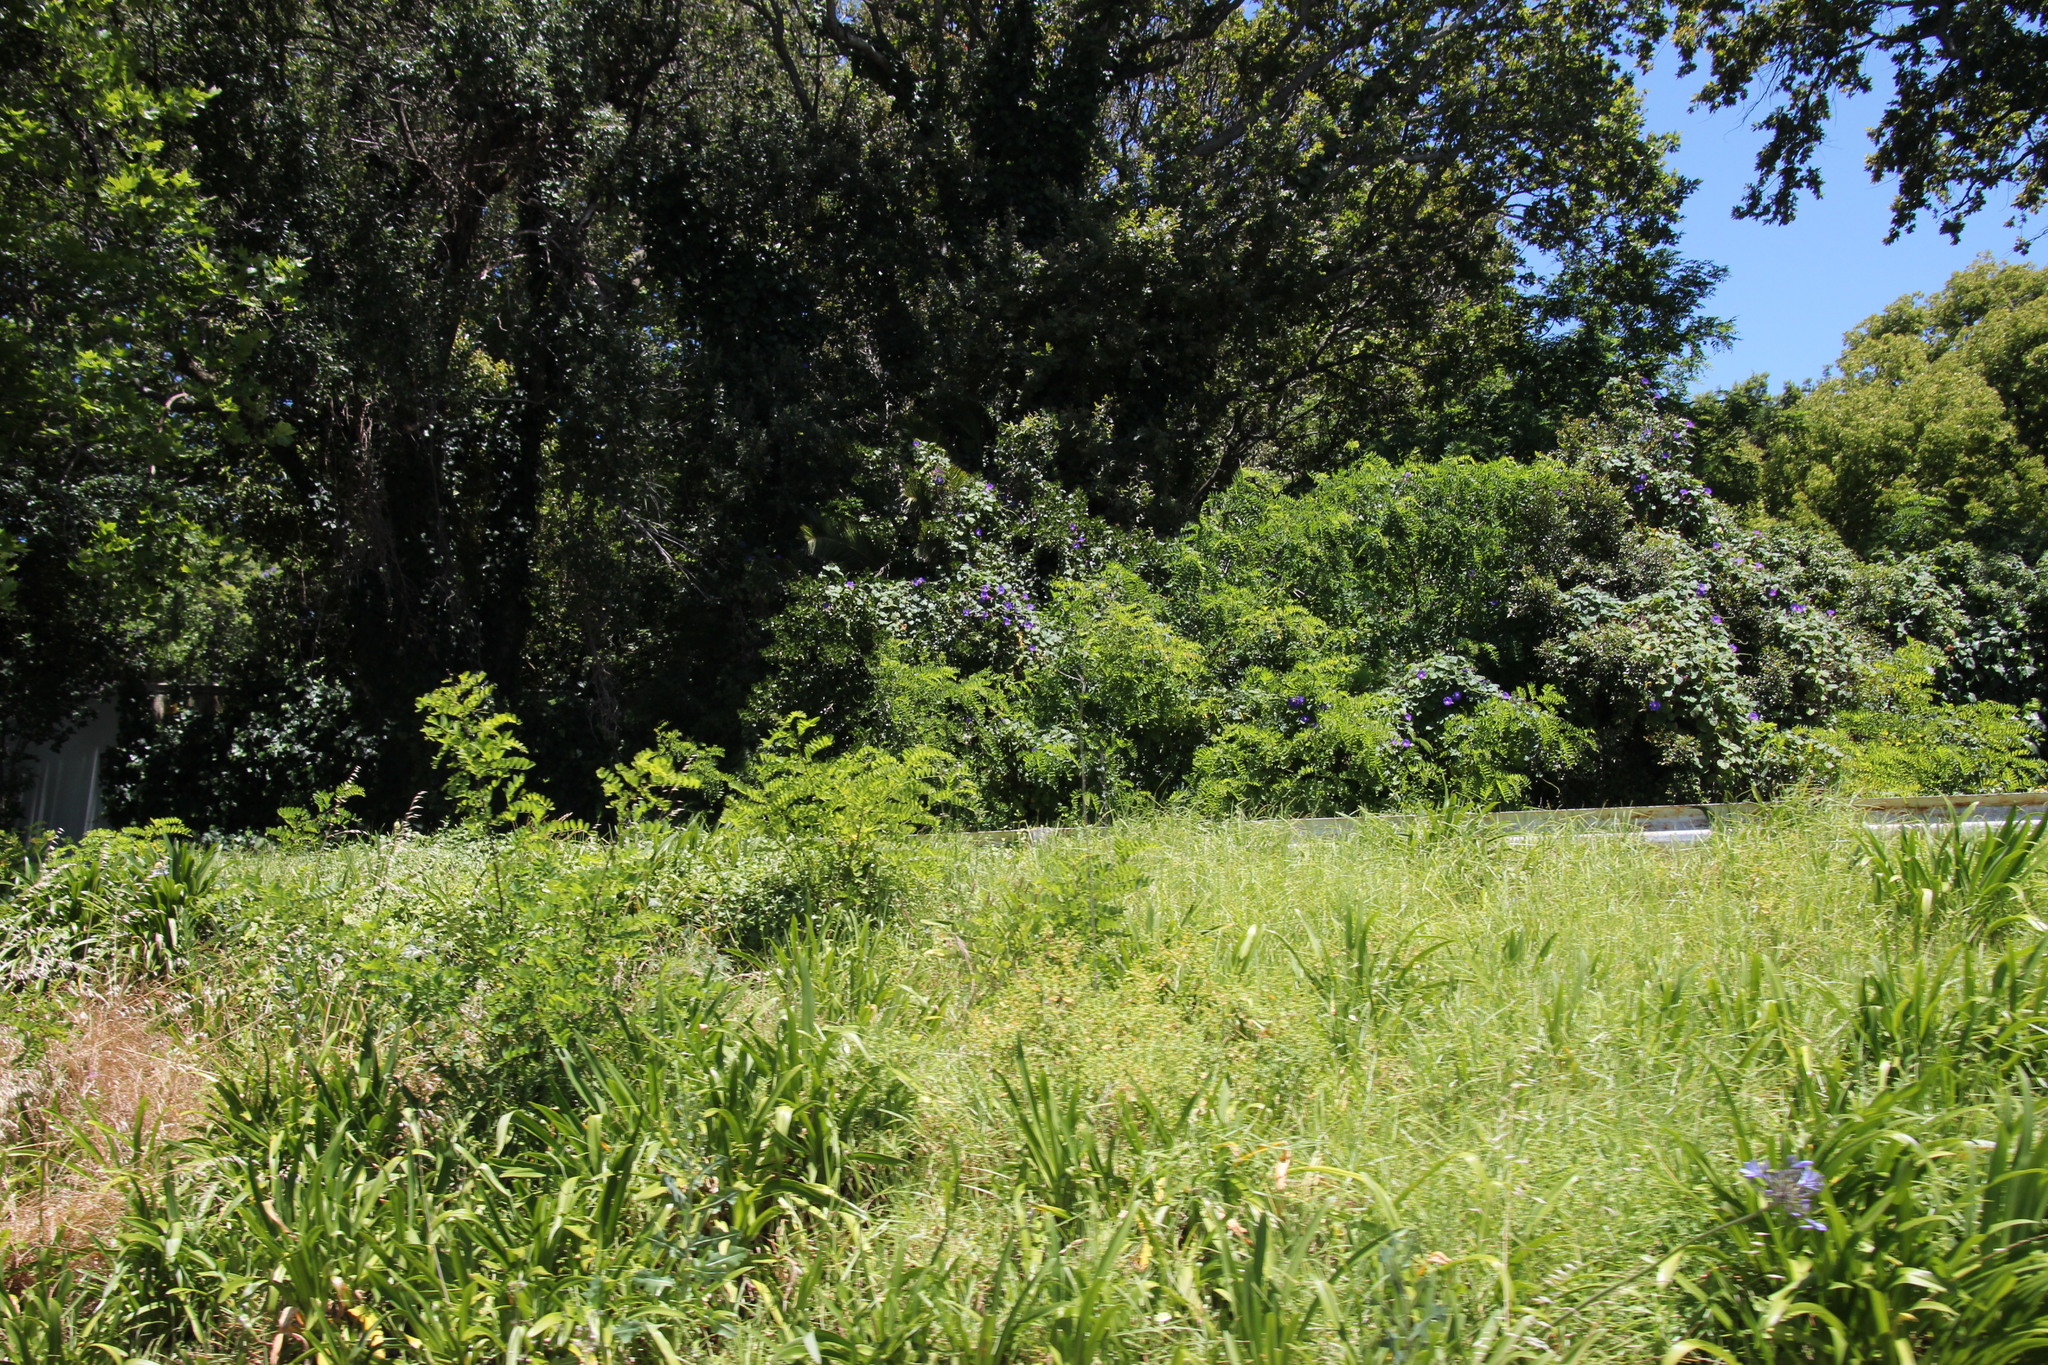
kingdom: Plantae
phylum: Tracheophyta
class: Magnoliopsida
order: Fabales
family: Fabaceae
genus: Robinia
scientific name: Robinia pseudoacacia
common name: Black locust
